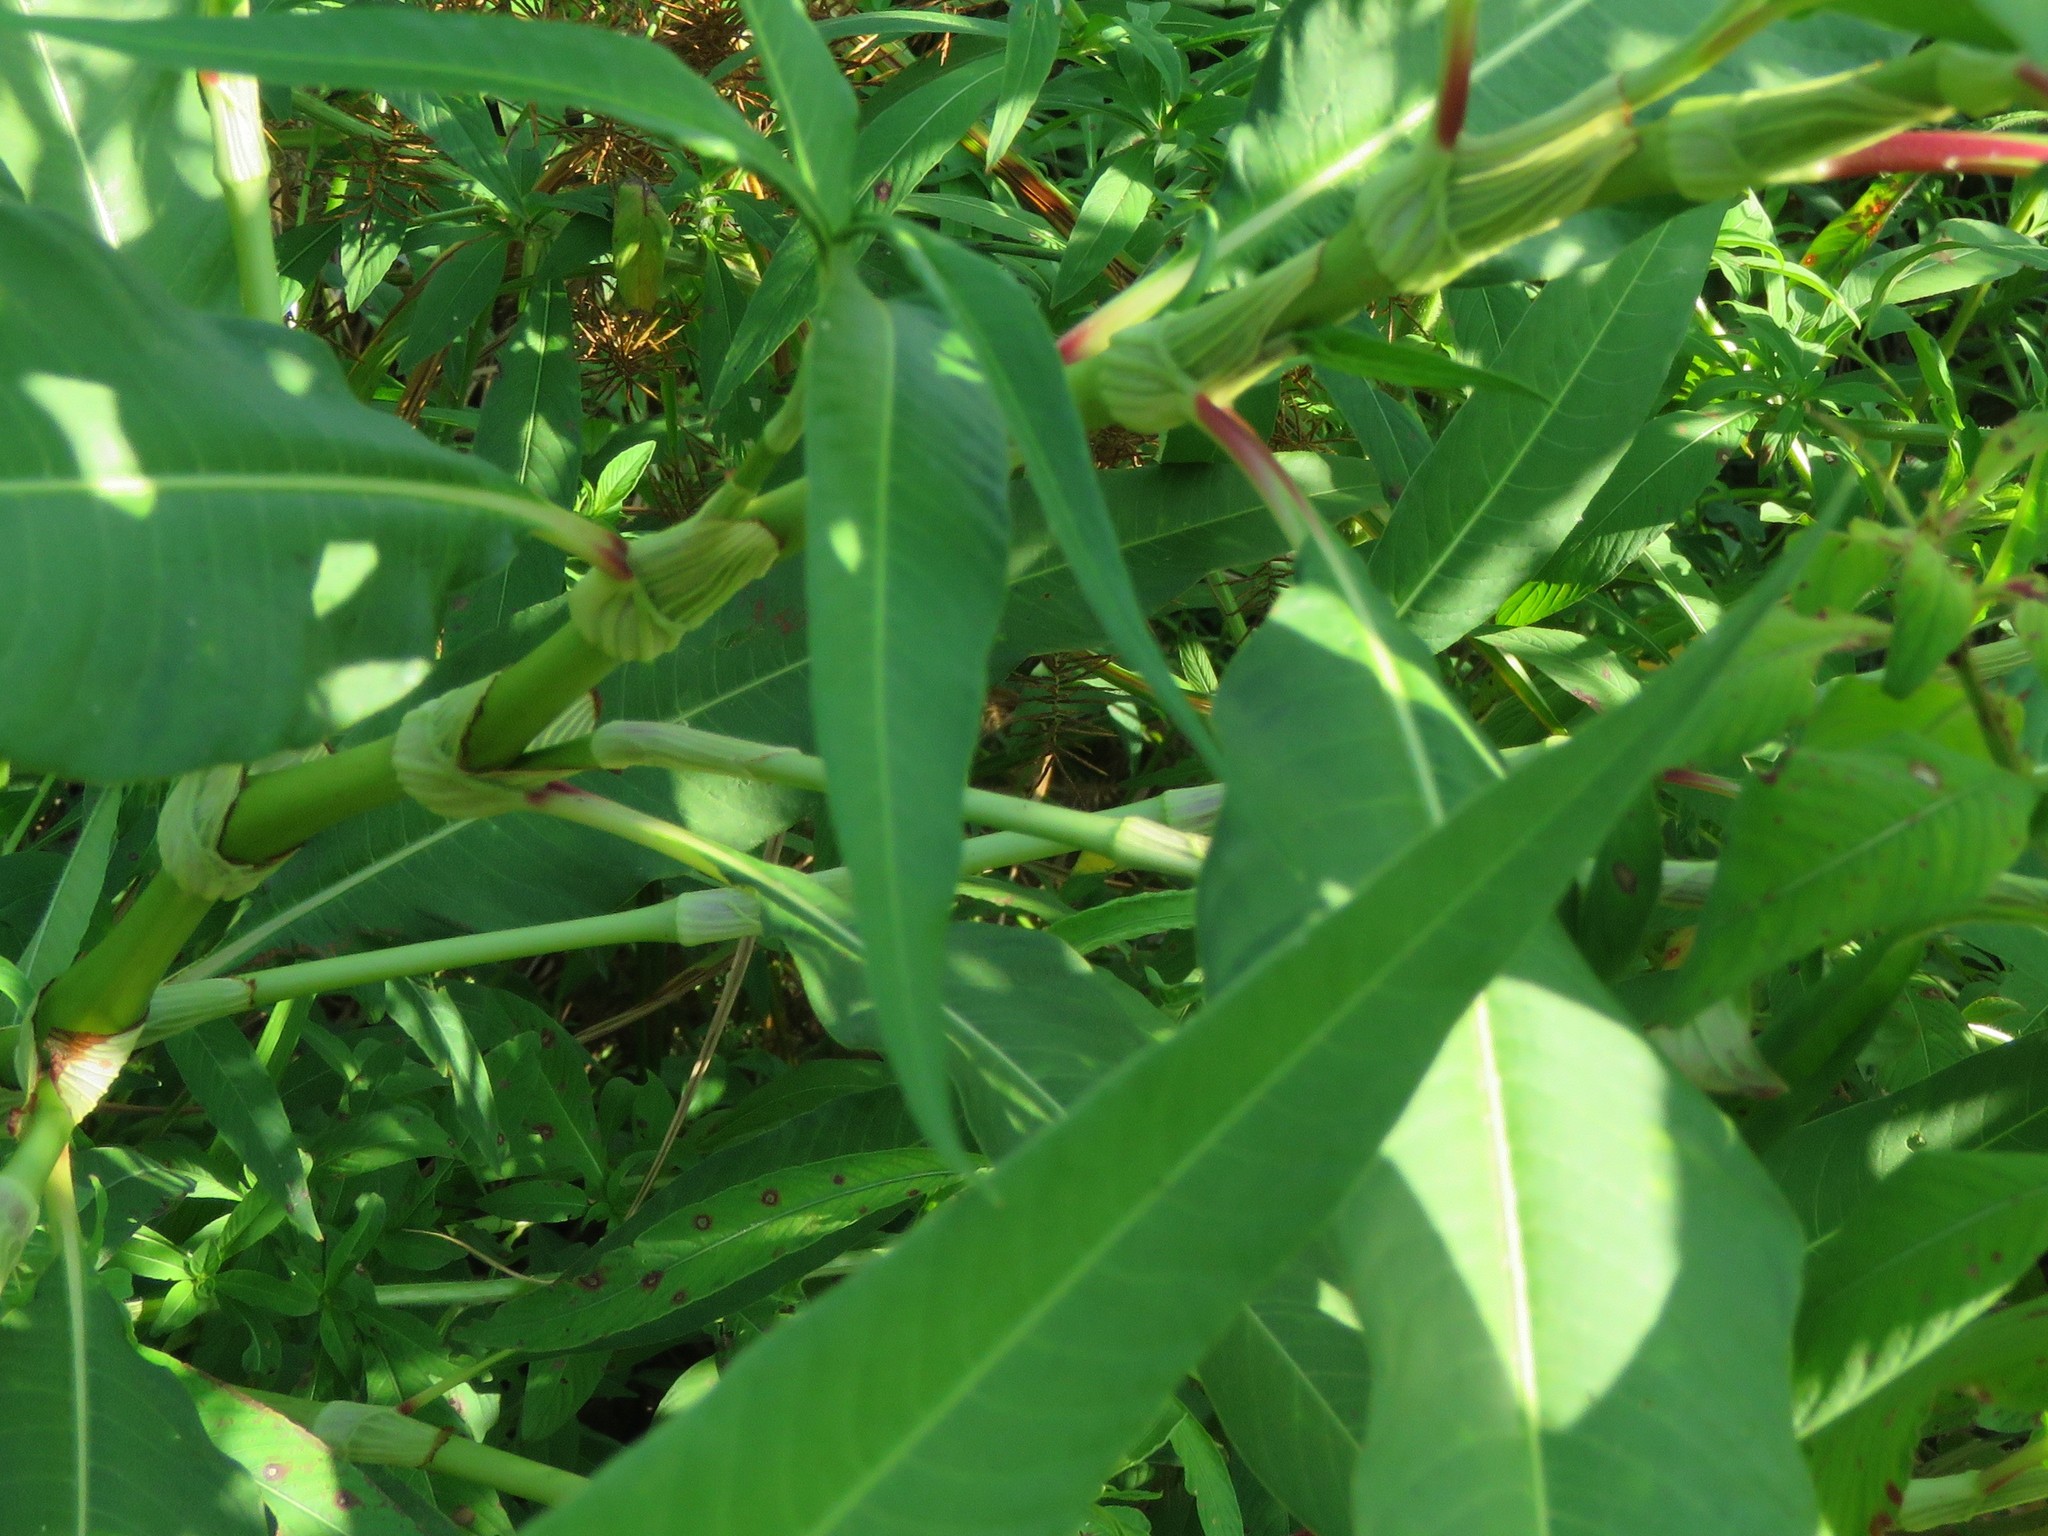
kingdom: Plantae
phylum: Tracheophyta
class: Magnoliopsida
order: Caryophyllales
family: Polygonaceae
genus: Persicaria
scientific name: Persicaria lapathifolia
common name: Curlytop knotweed
